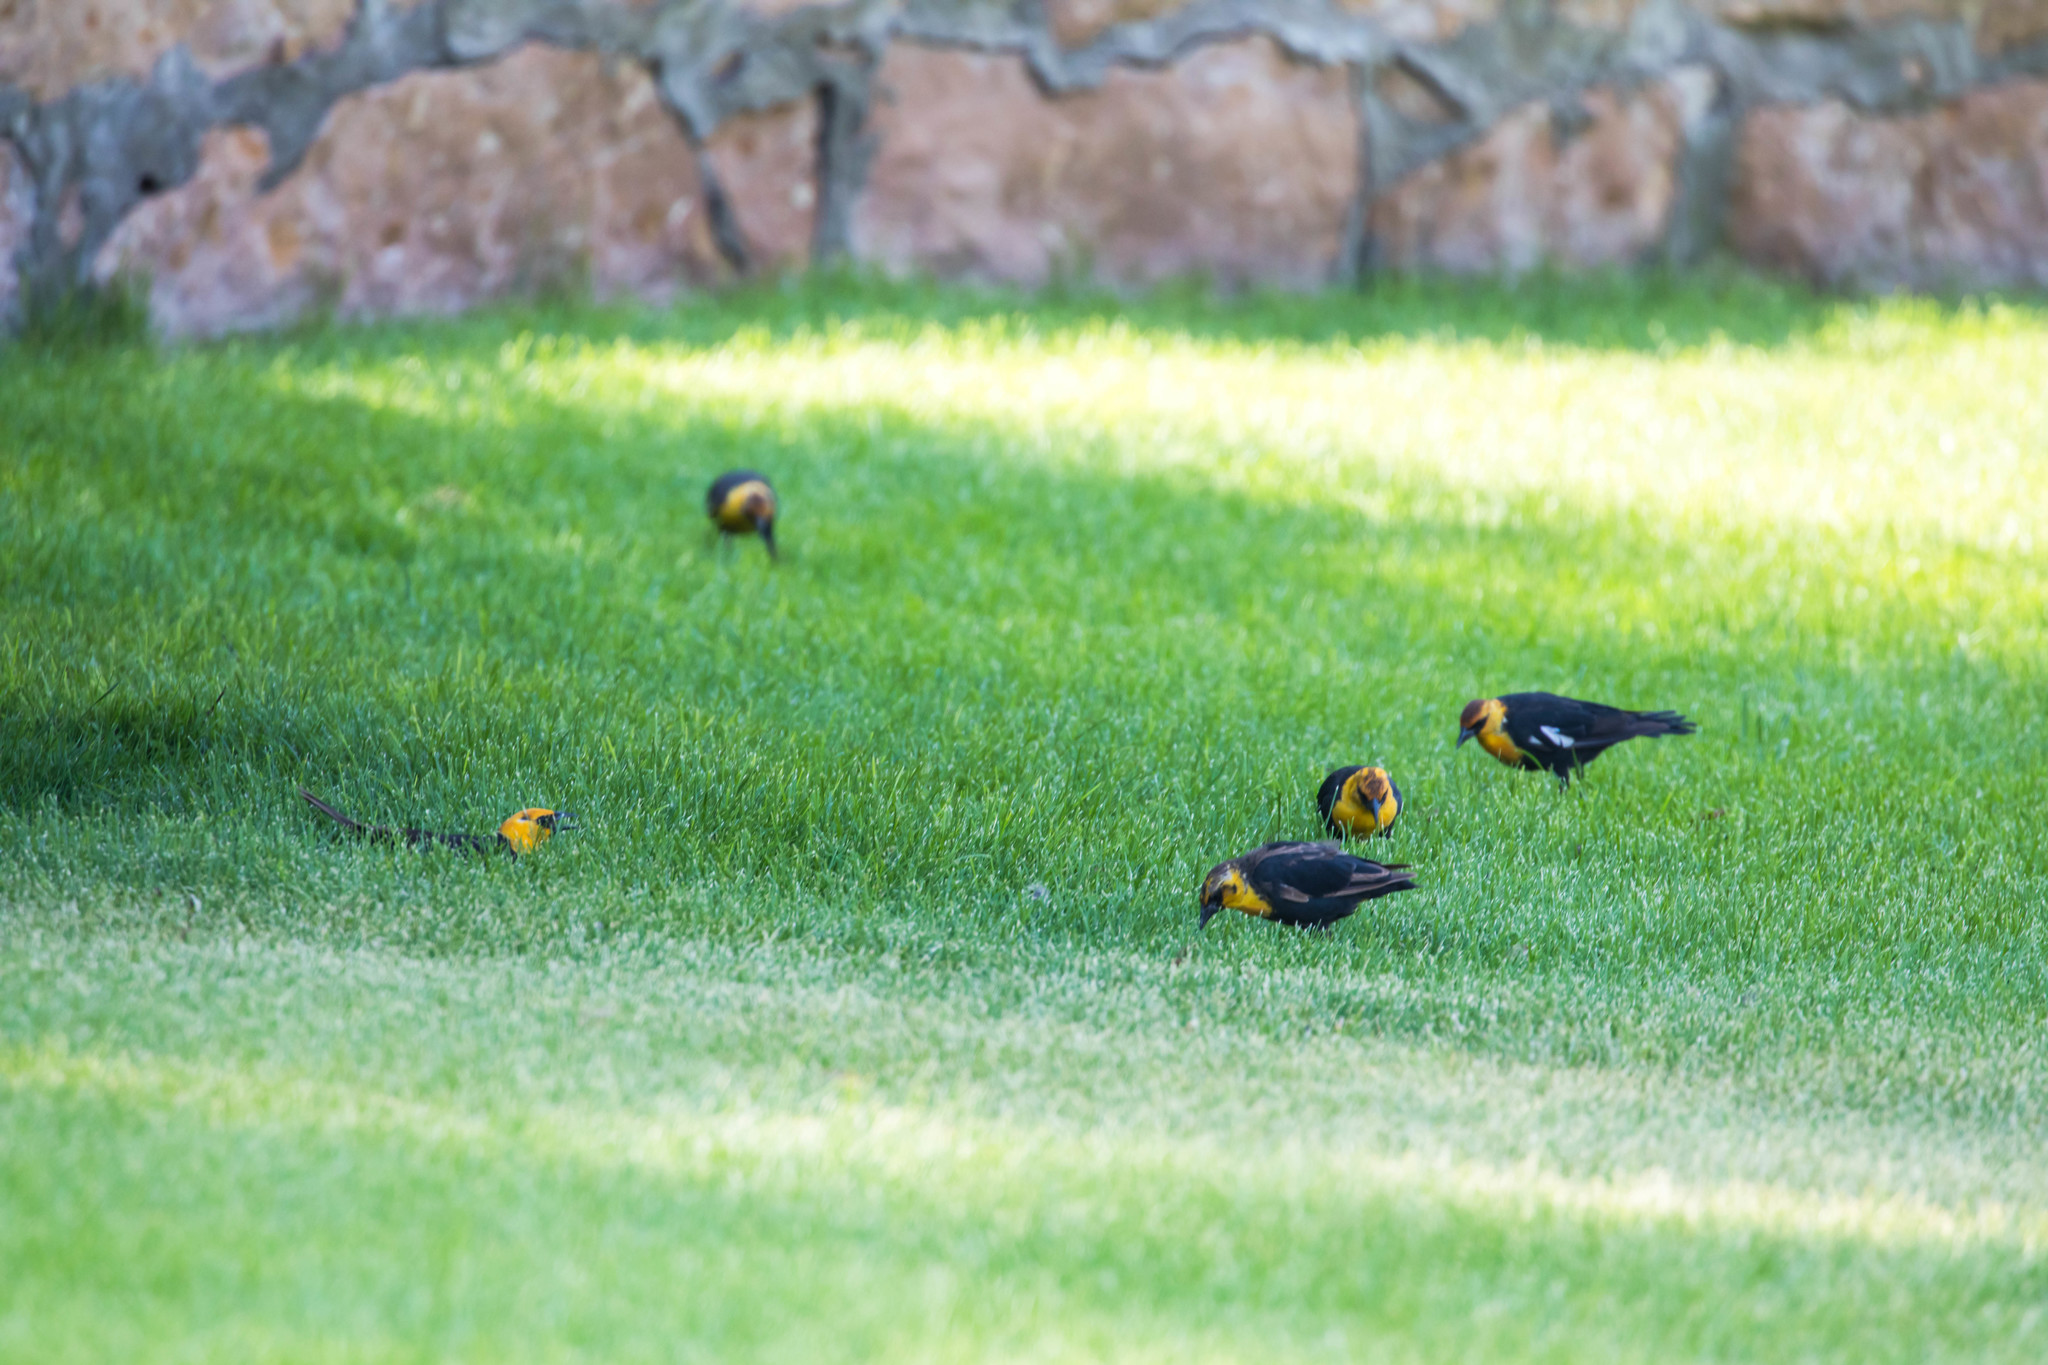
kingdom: Animalia
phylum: Chordata
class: Aves
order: Passeriformes
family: Icteridae
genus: Xanthocephalus
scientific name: Xanthocephalus xanthocephalus
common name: Yellow-headed blackbird
